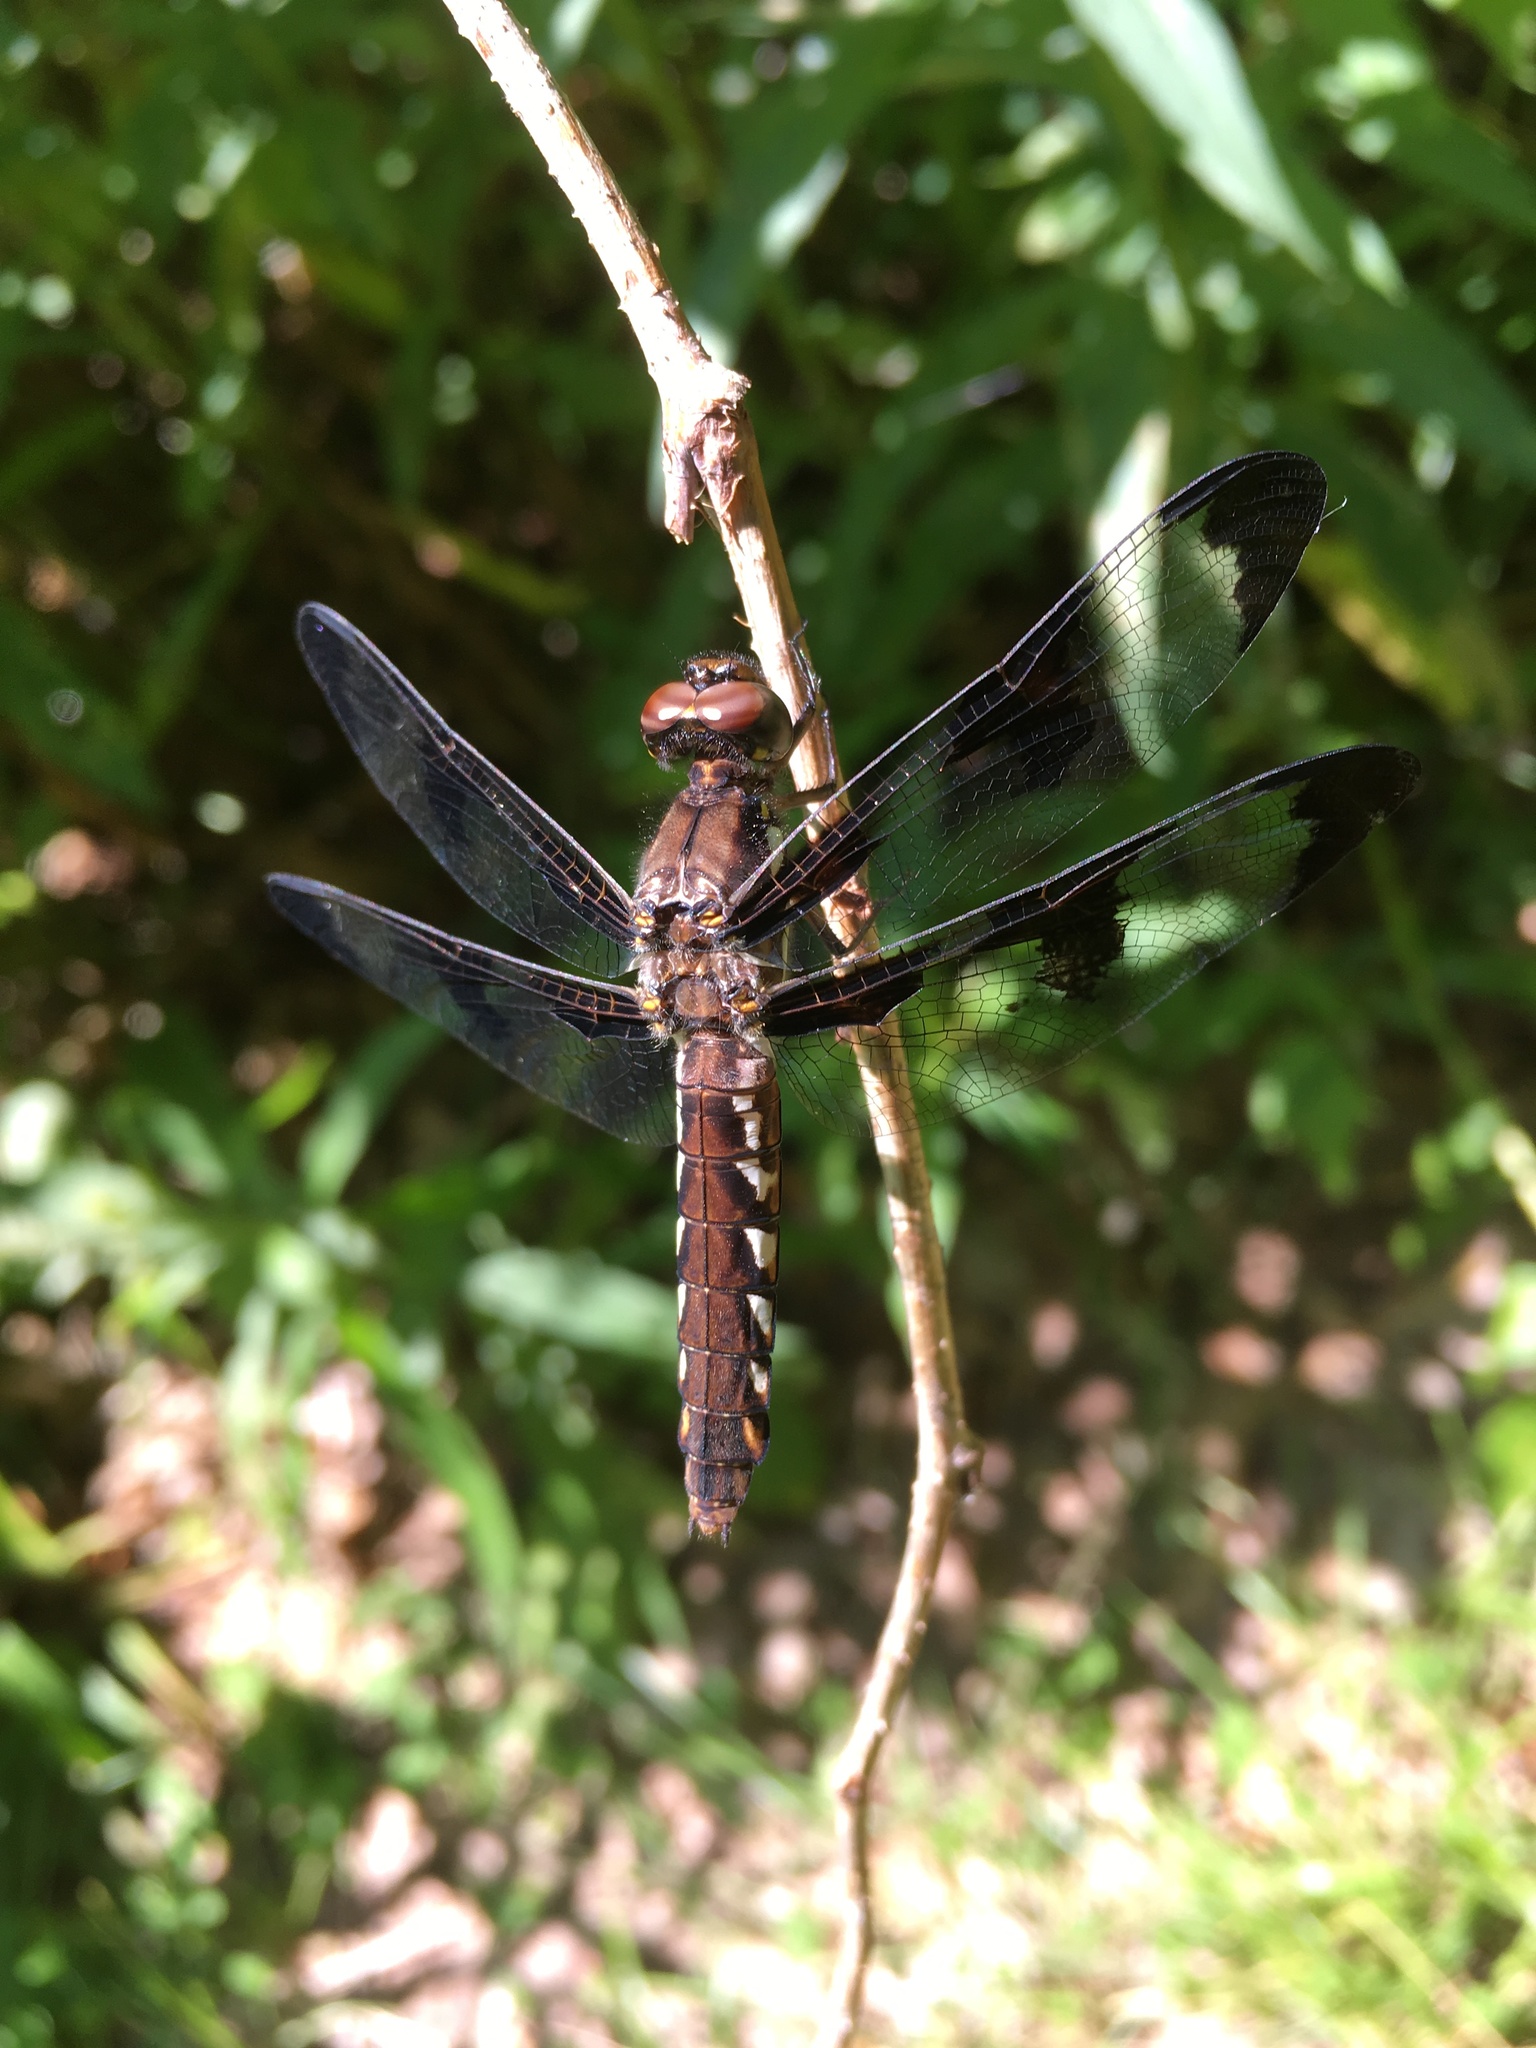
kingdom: Animalia
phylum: Arthropoda
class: Insecta
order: Odonata
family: Libellulidae
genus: Plathemis
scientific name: Plathemis lydia
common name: Common whitetail
